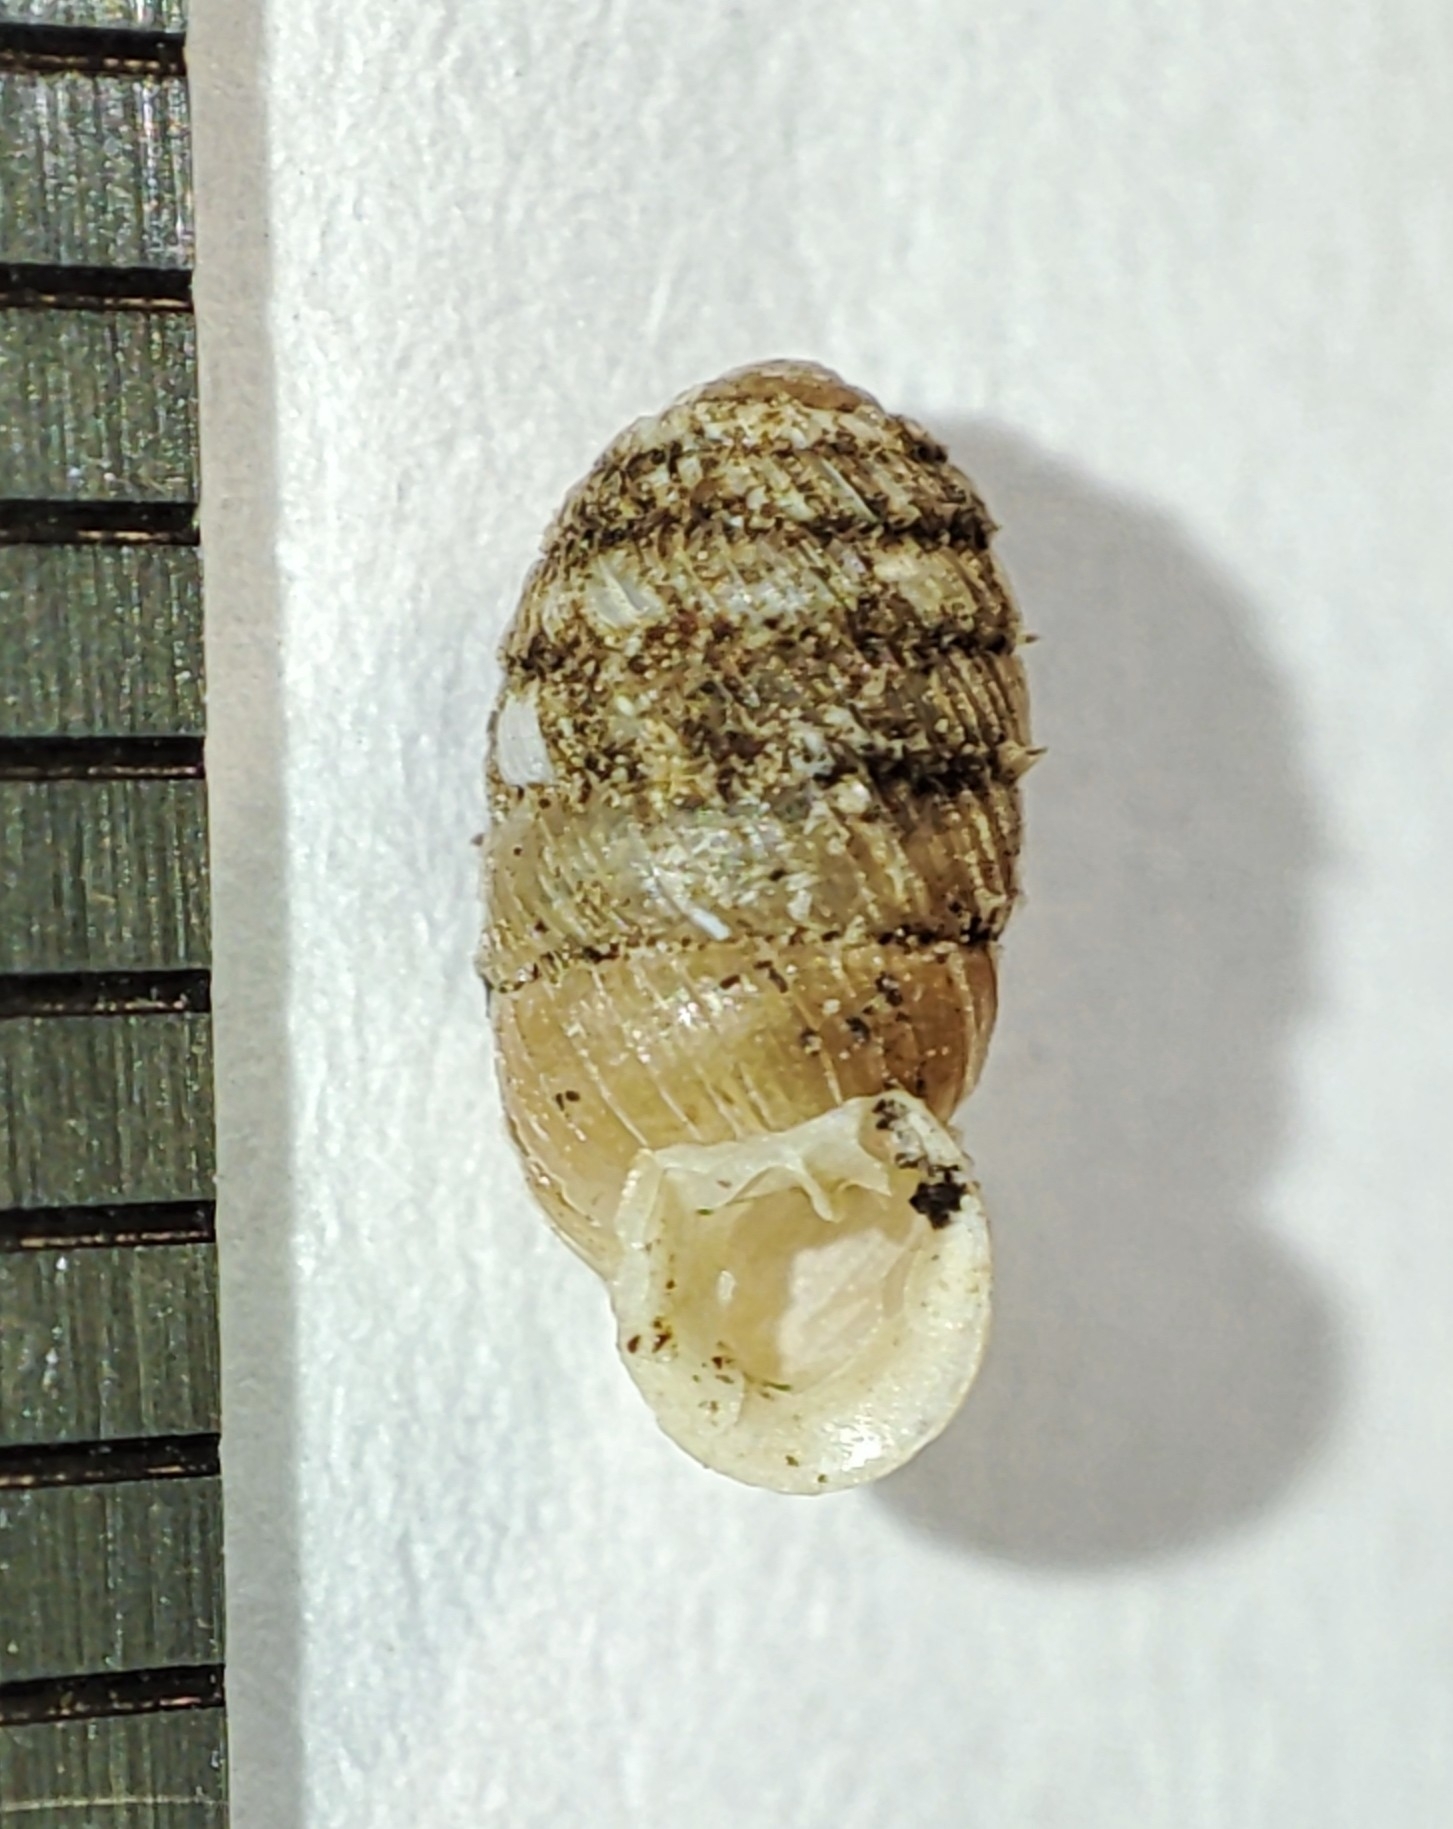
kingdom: Animalia
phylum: Mollusca
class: Gastropoda
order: Stylommatophora
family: Orculidae
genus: Sphyradium
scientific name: Sphyradium doliolum
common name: Tiny drumsnail
